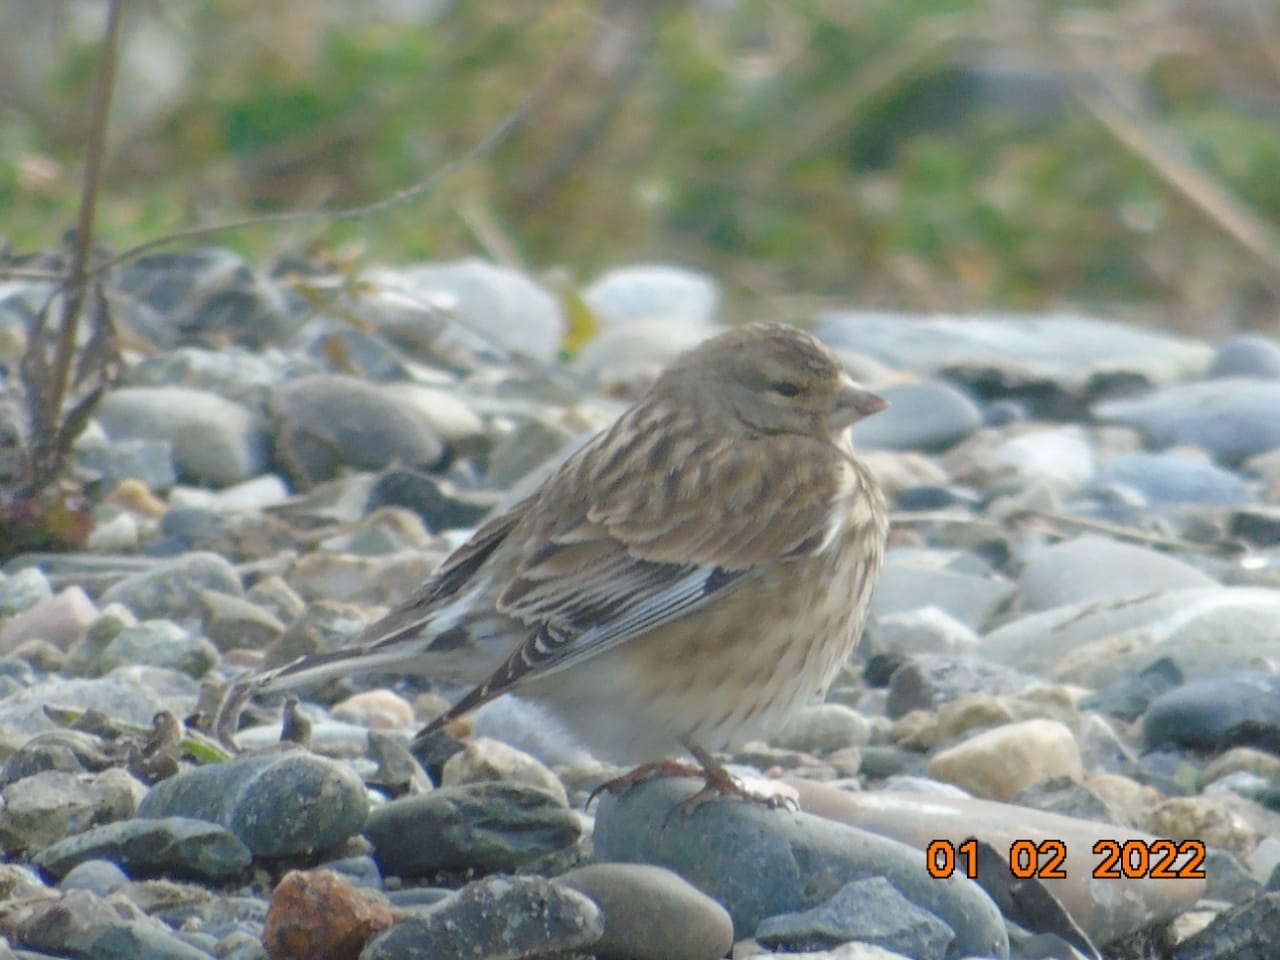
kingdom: Animalia
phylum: Chordata
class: Aves
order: Passeriformes
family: Fringillidae
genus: Linaria
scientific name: Linaria cannabina
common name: Common linnet
